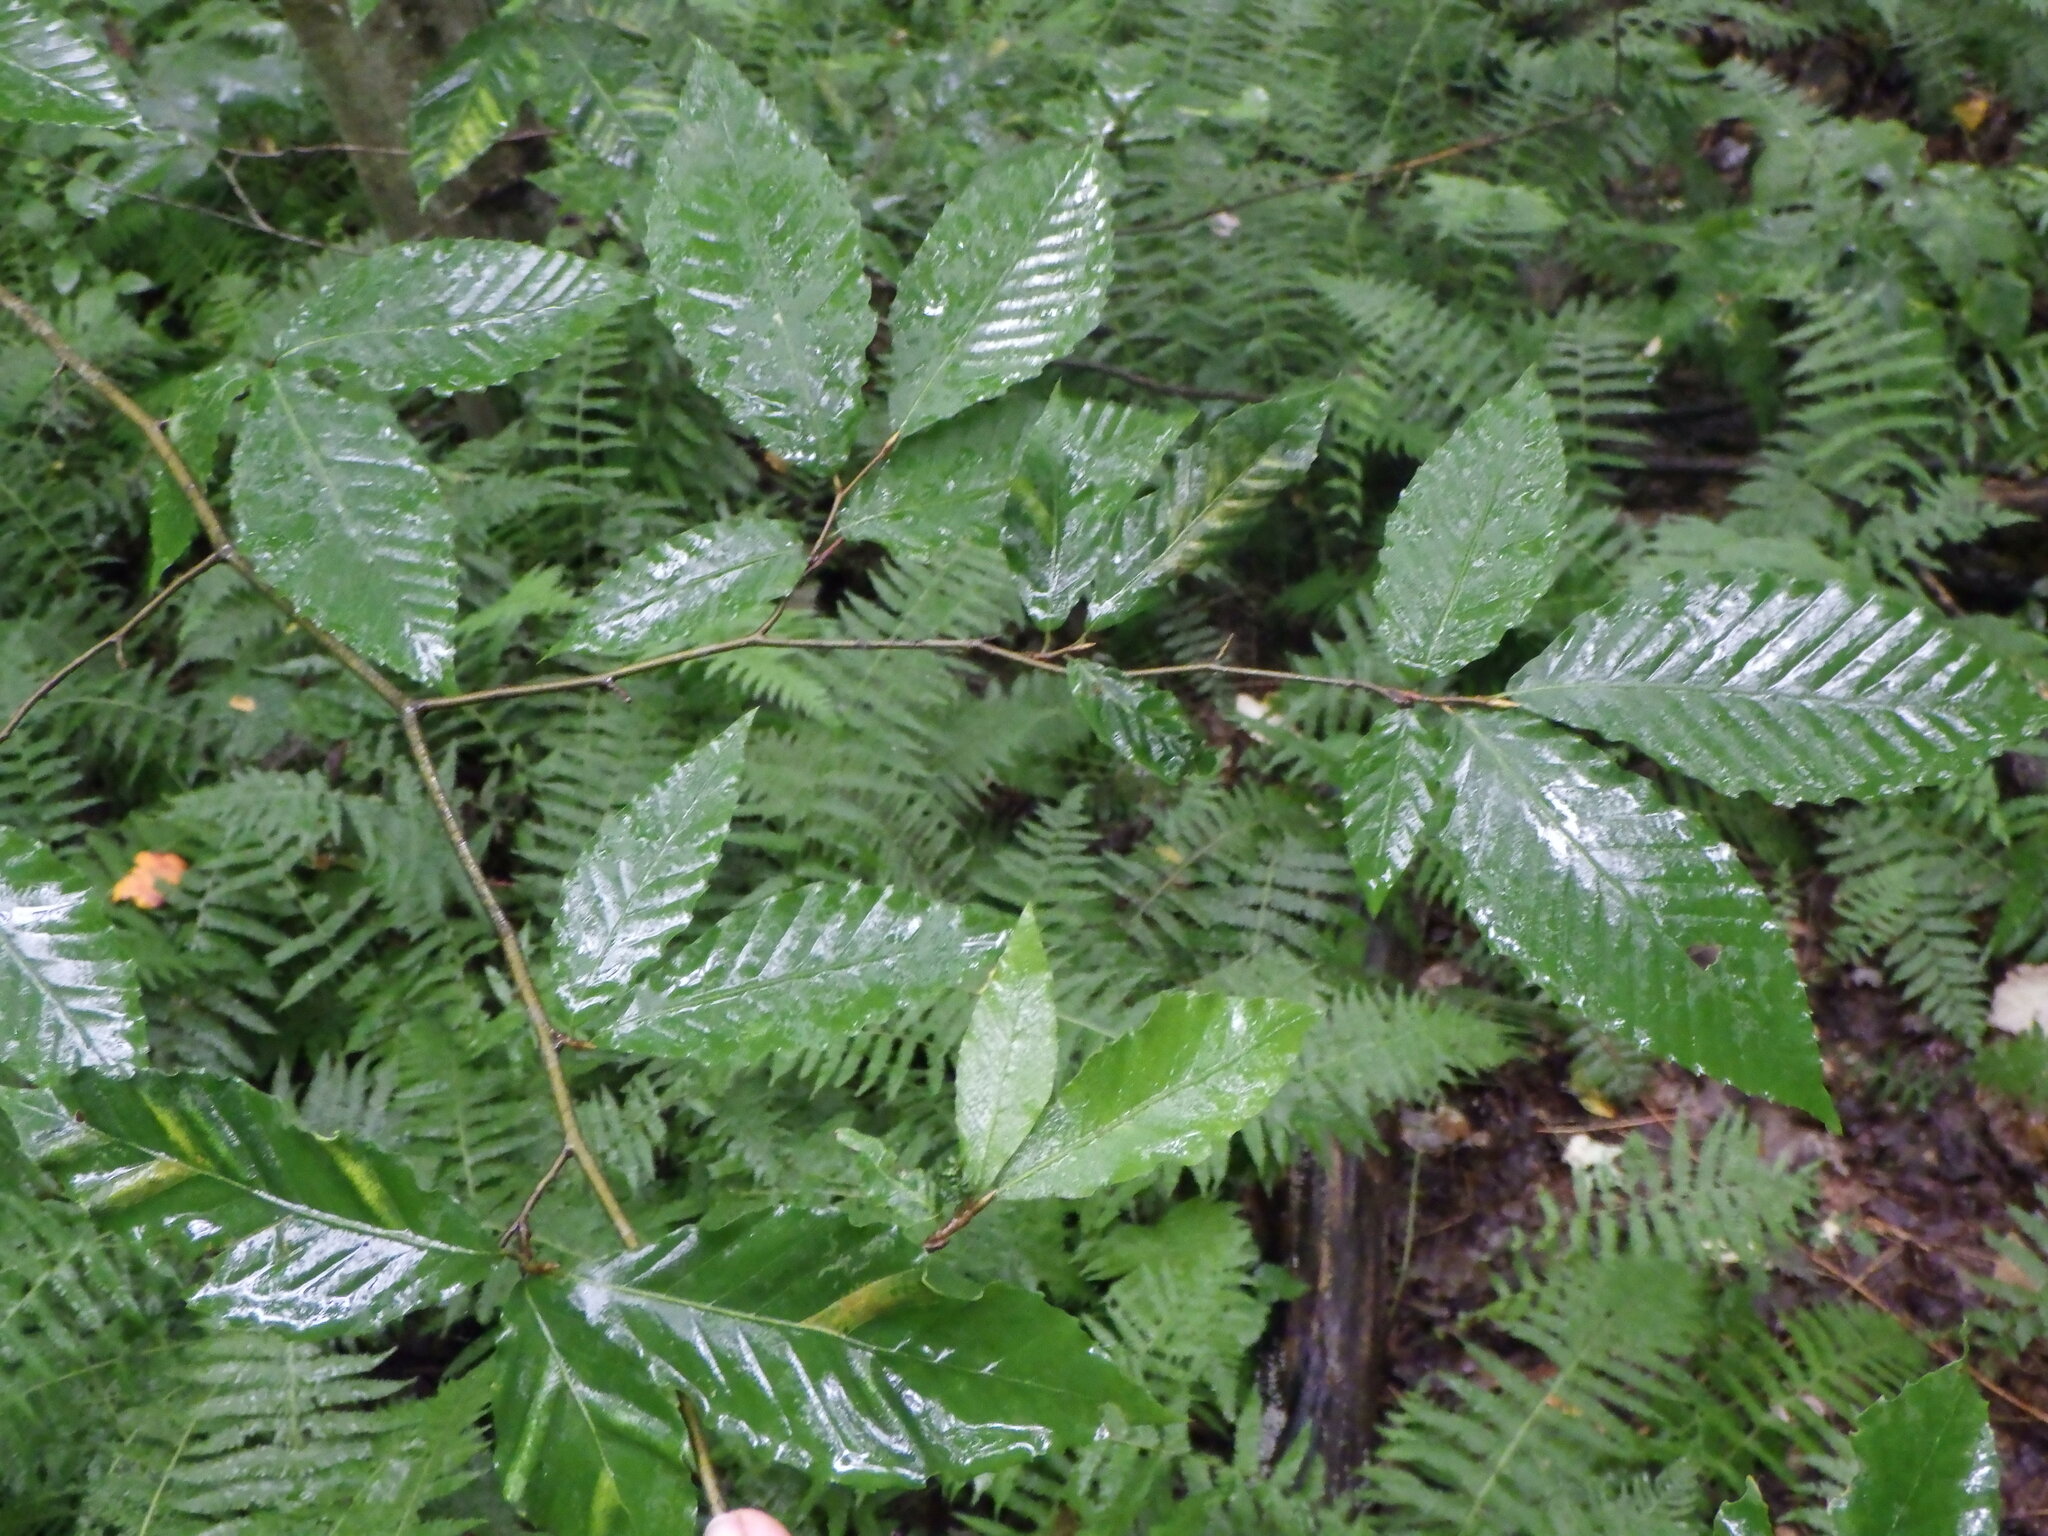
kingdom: Plantae
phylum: Tracheophyta
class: Magnoliopsida
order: Fagales
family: Fagaceae
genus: Fagus
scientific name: Fagus grandifolia
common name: American beech
